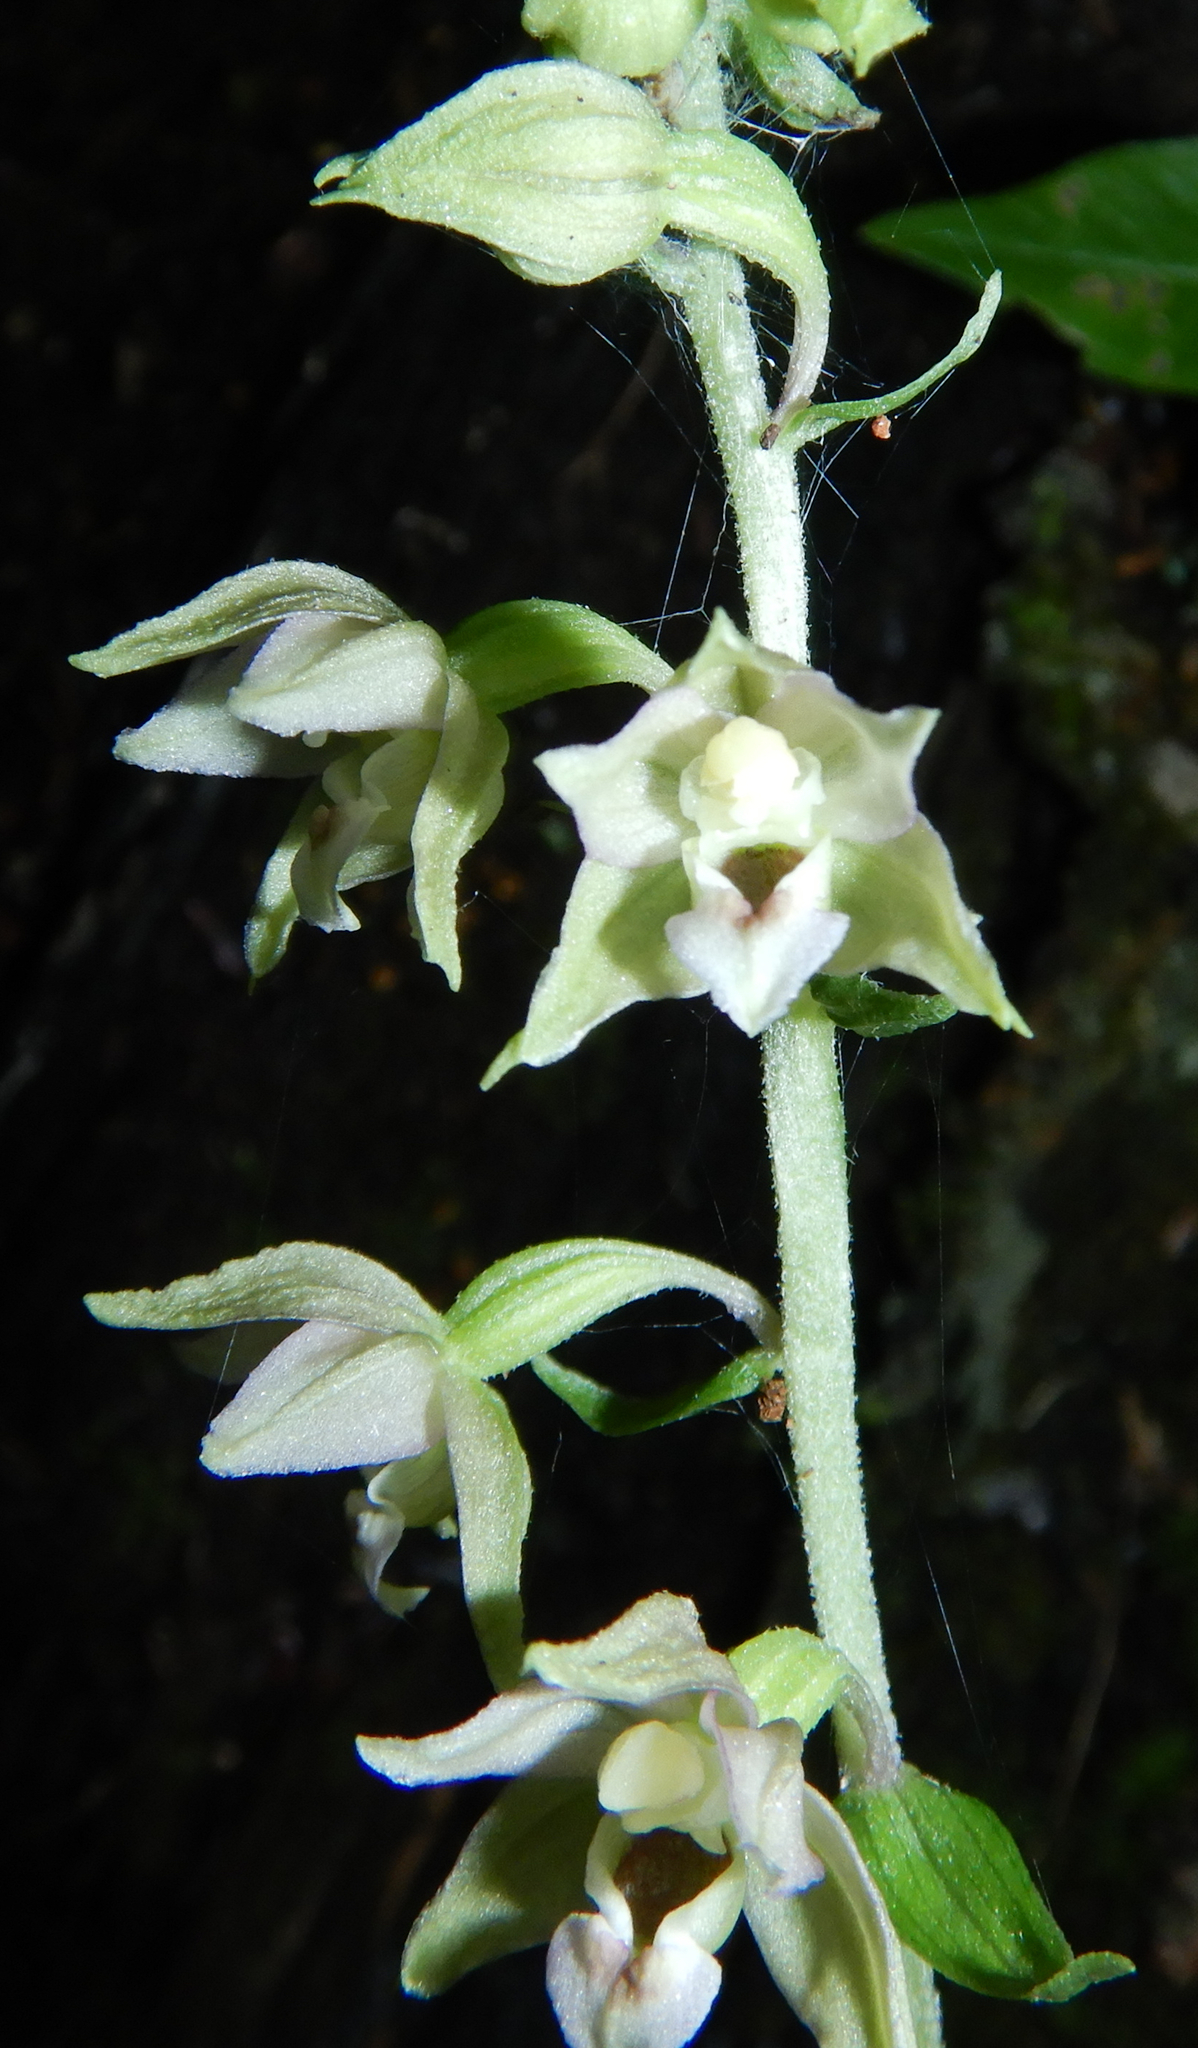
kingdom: Plantae
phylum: Tracheophyta
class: Liliopsida
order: Asparagales
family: Orchidaceae
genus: Epipactis
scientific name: Epipactis helleborine
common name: Broad-leaved helleborine
